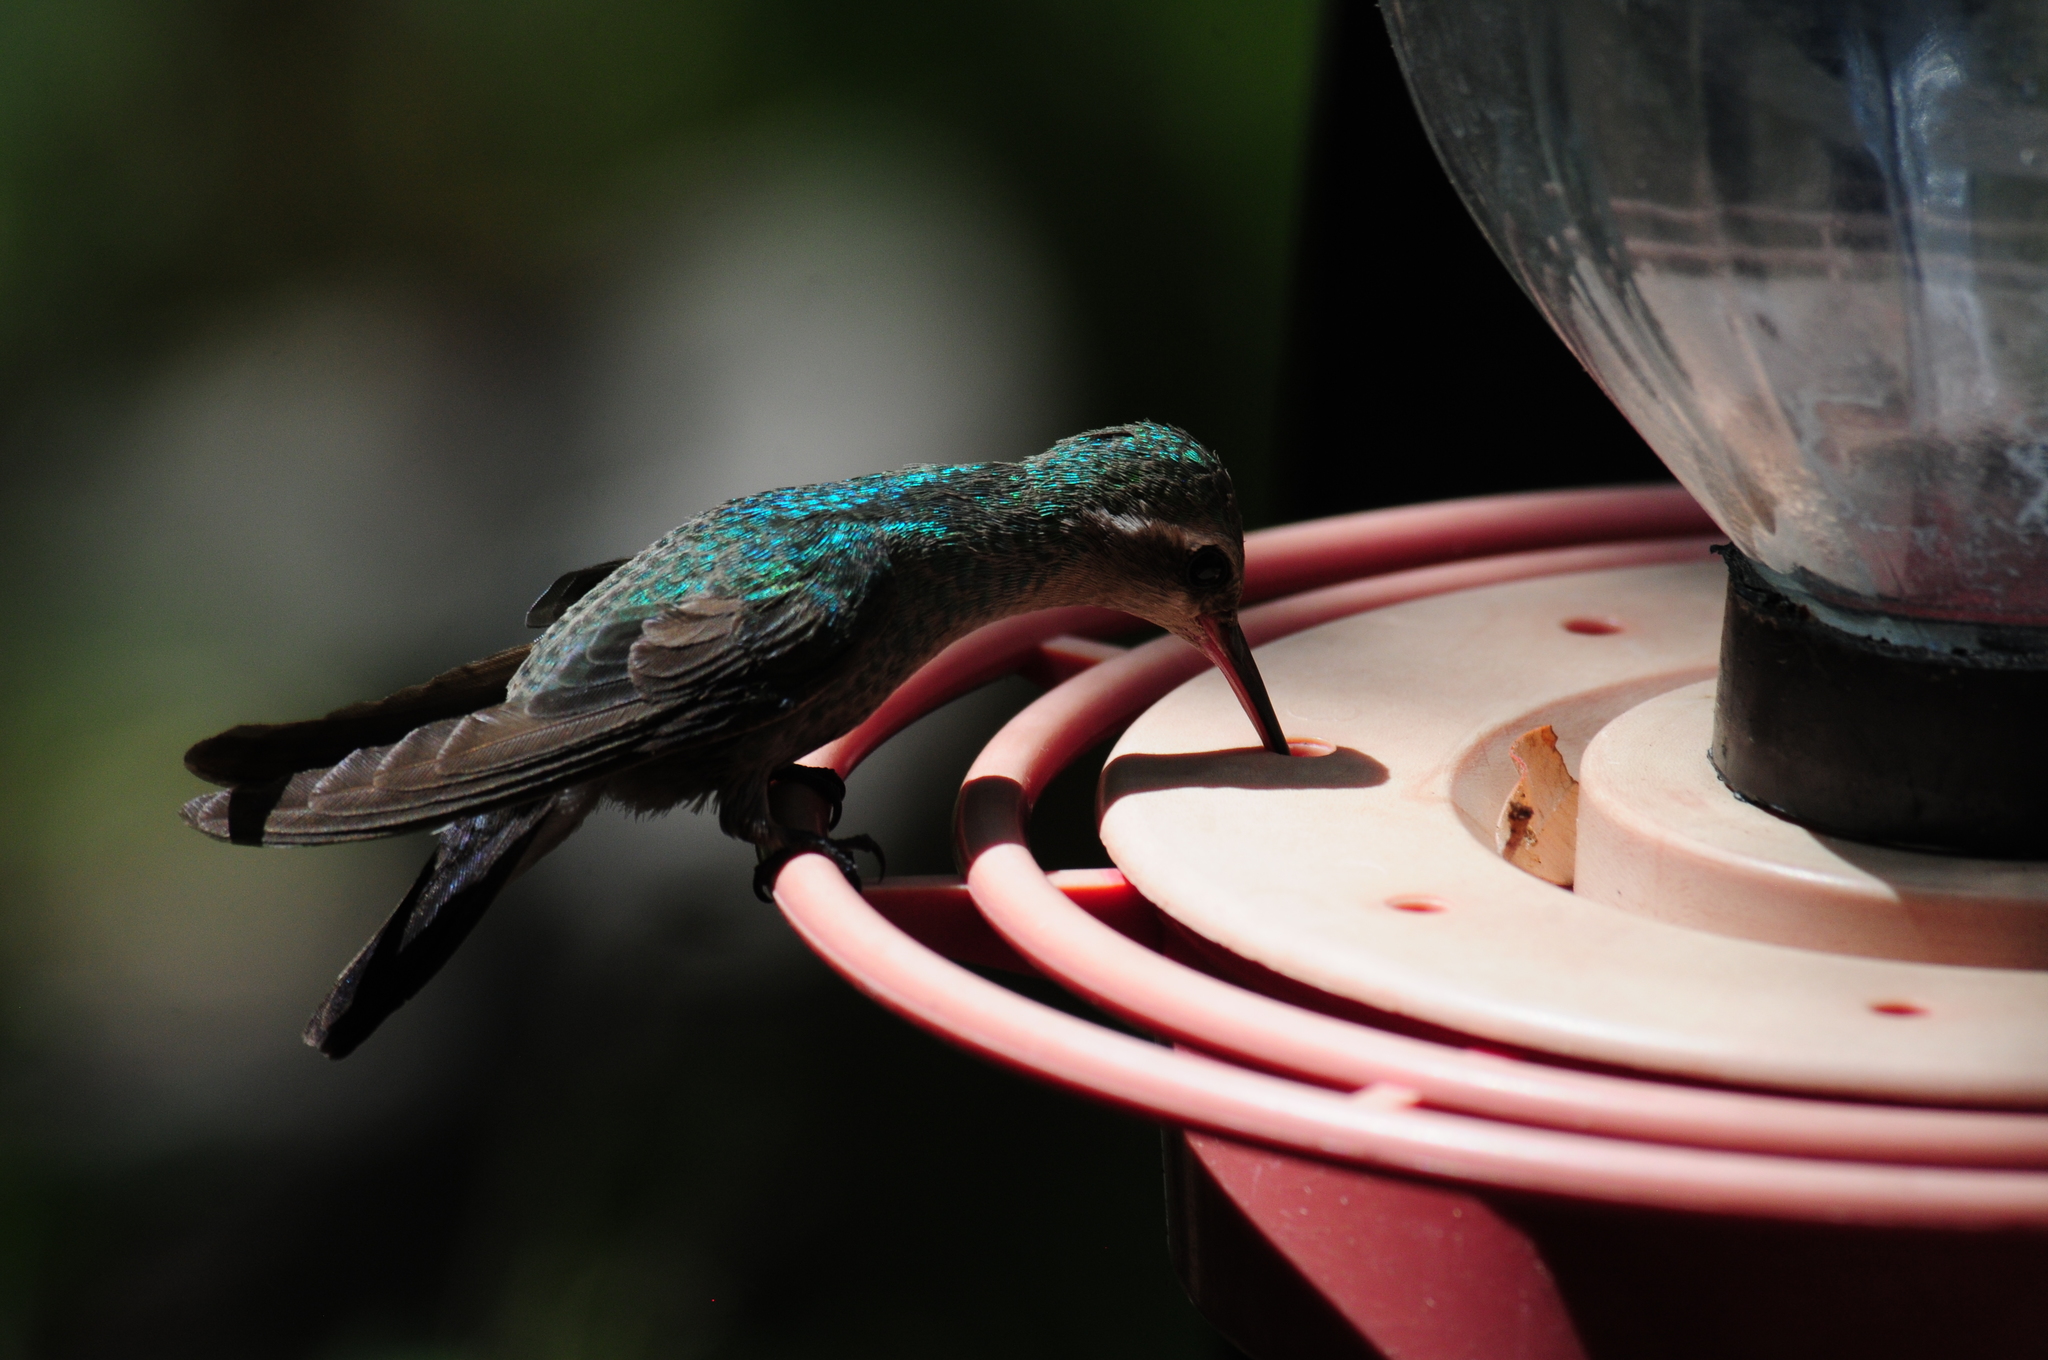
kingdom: Animalia
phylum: Chordata
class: Aves
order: Apodiformes
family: Trochilidae
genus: Cynanthus
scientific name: Cynanthus latirostris
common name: Broad-billed hummingbird
